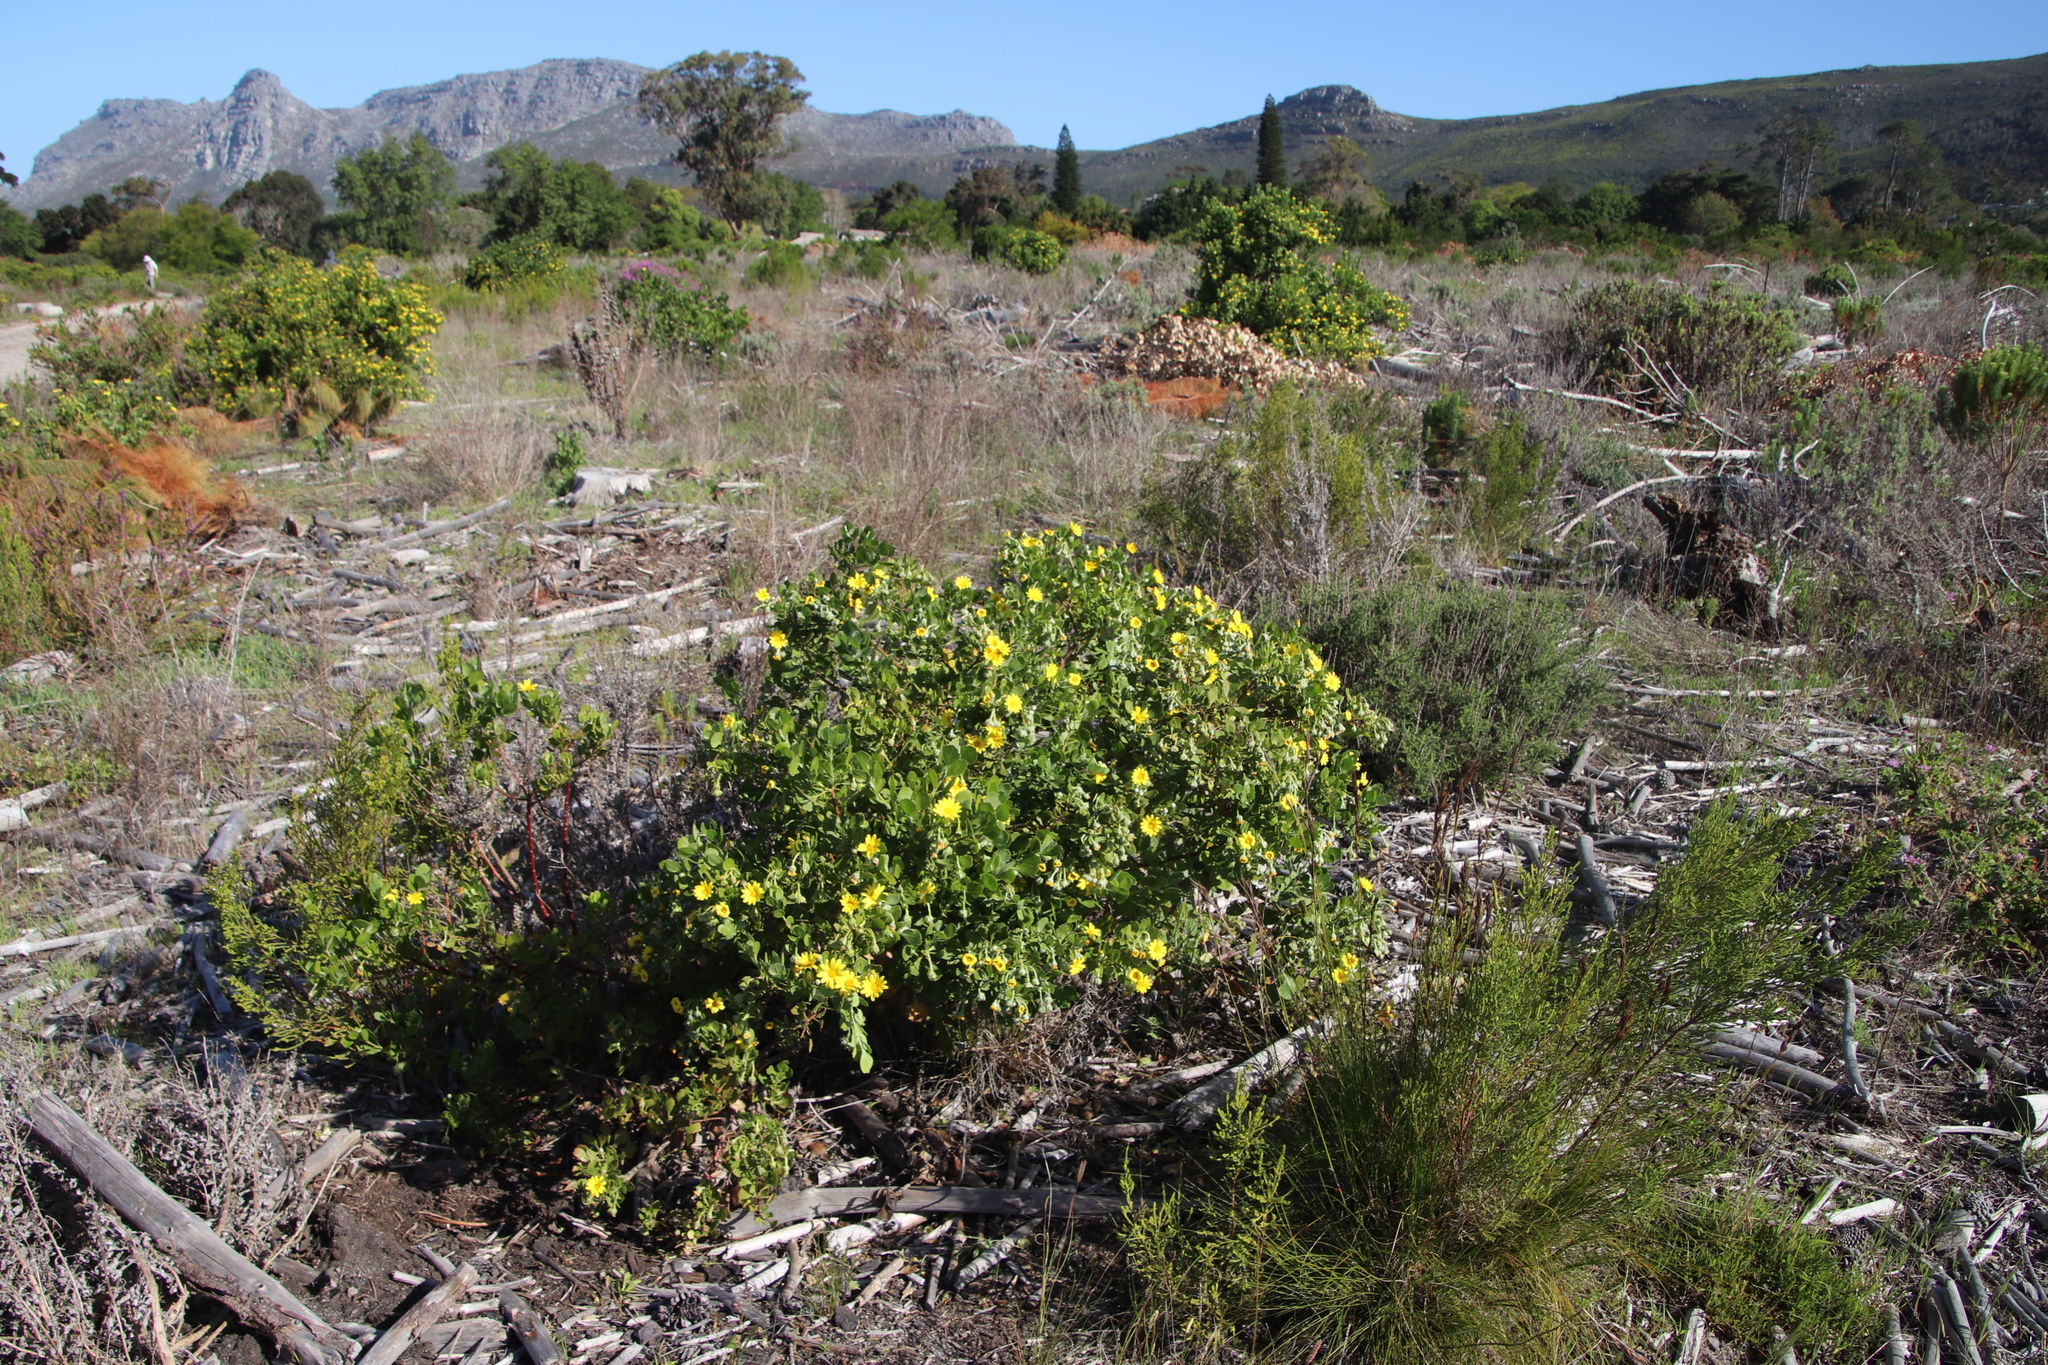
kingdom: Plantae
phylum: Tracheophyta
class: Magnoliopsida
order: Asterales
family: Asteraceae
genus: Osteospermum
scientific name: Osteospermum moniliferum
